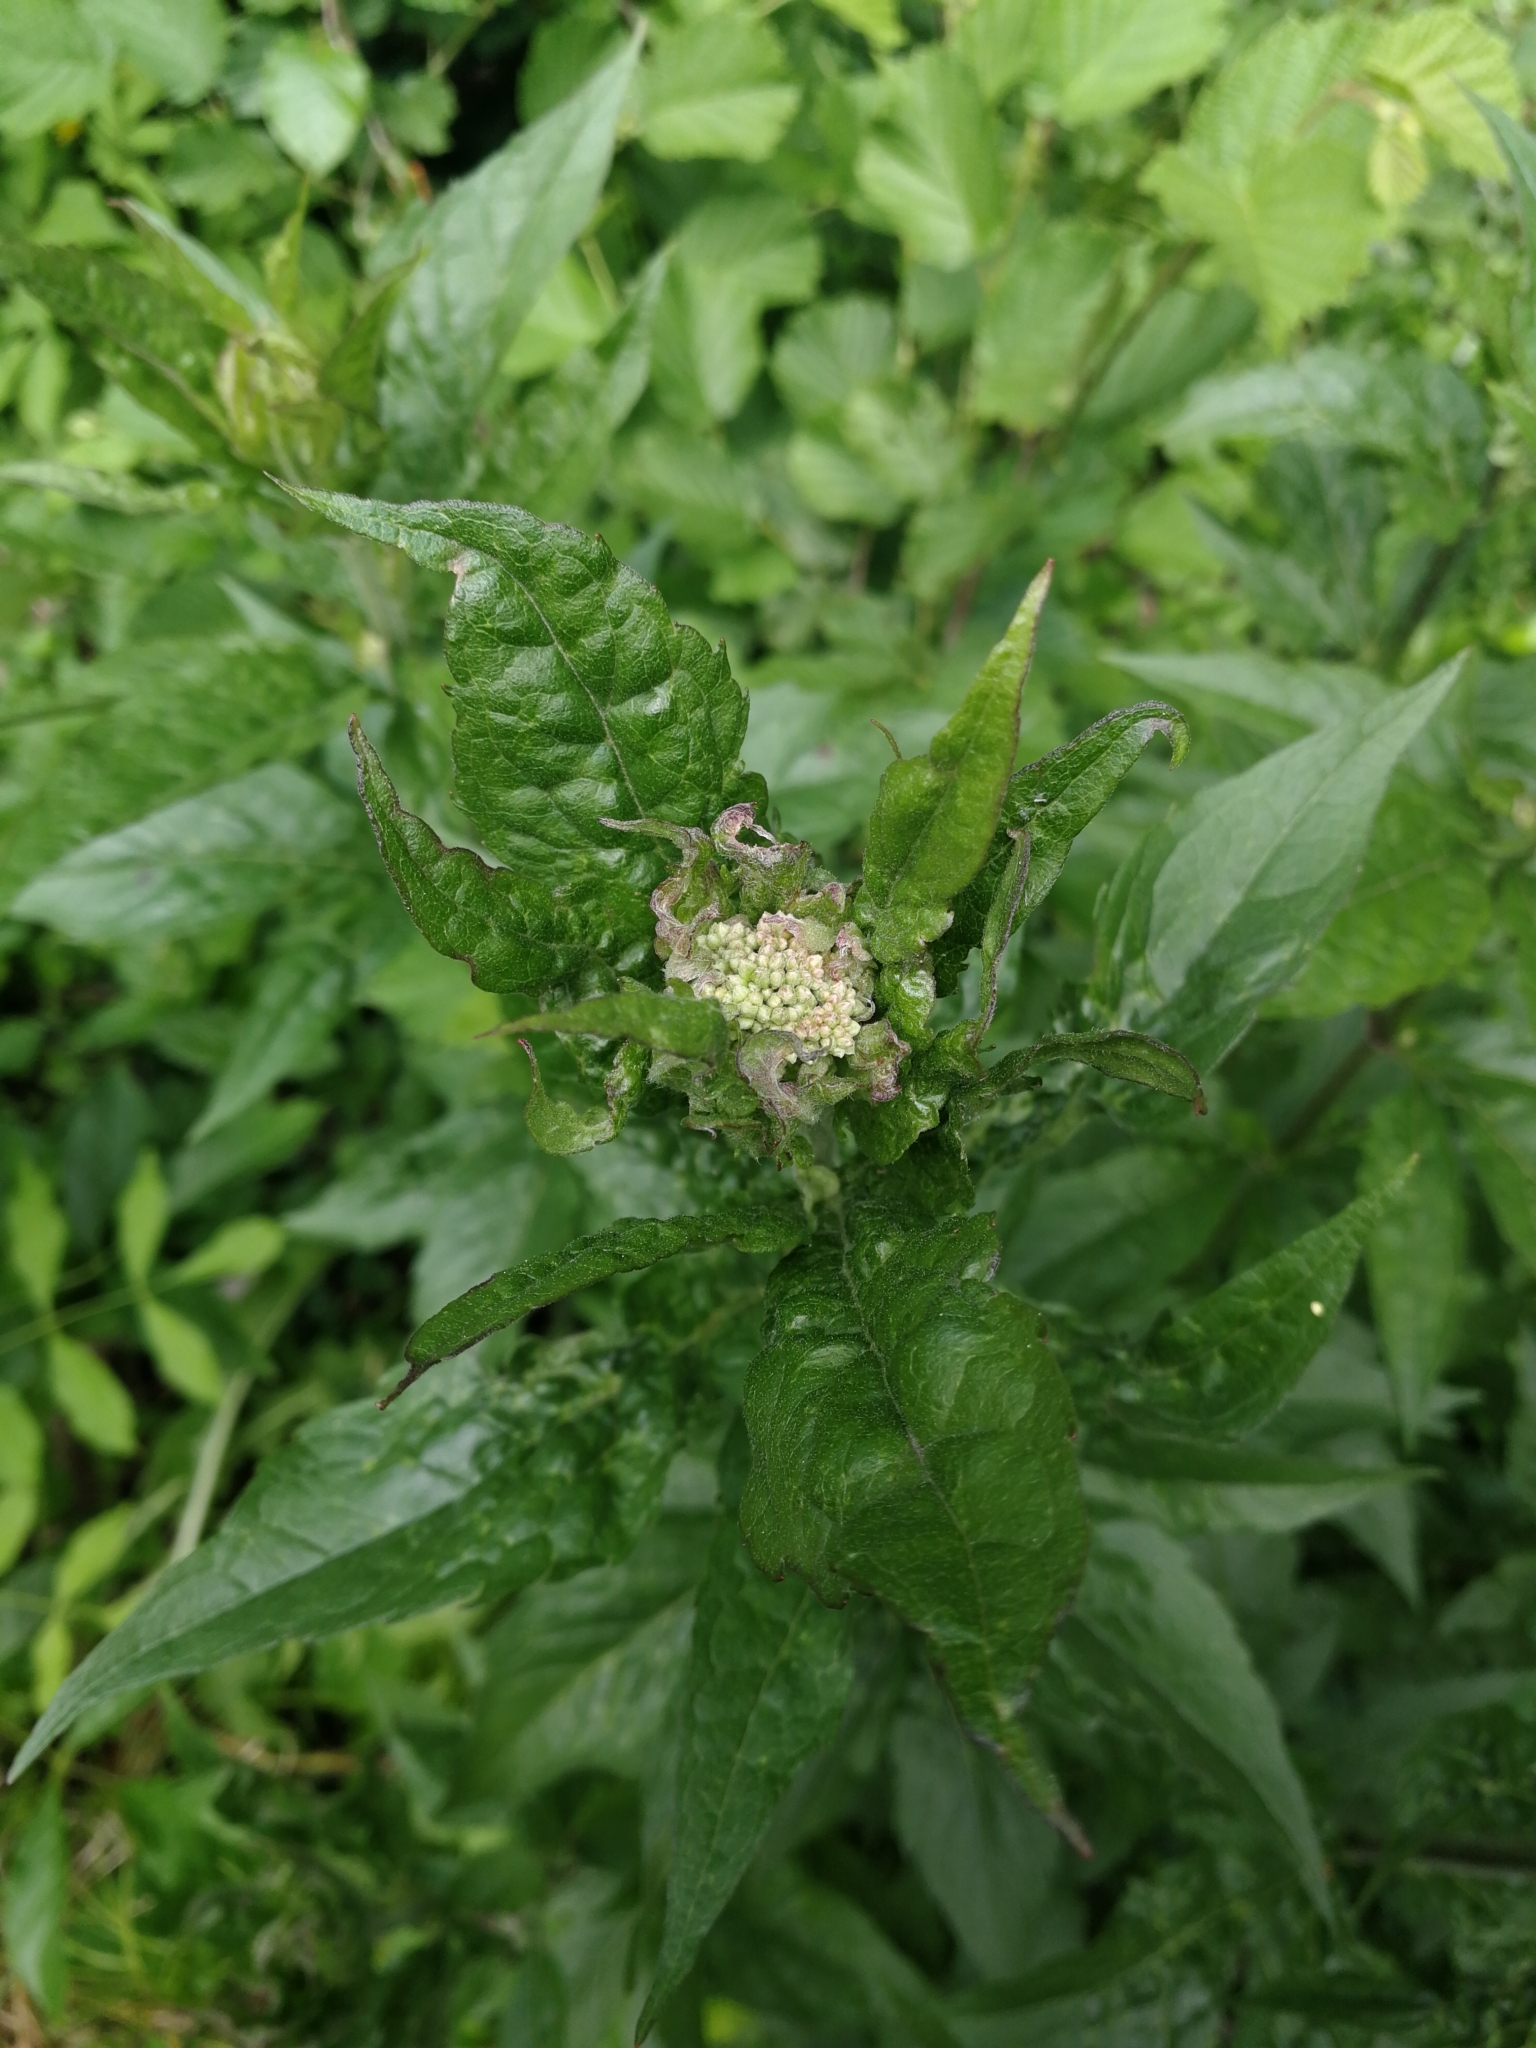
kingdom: Plantae
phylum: Tracheophyta
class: Magnoliopsida
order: Asterales
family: Asteraceae
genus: Eupatorium
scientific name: Eupatorium cannabinum
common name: Hemp-agrimony
